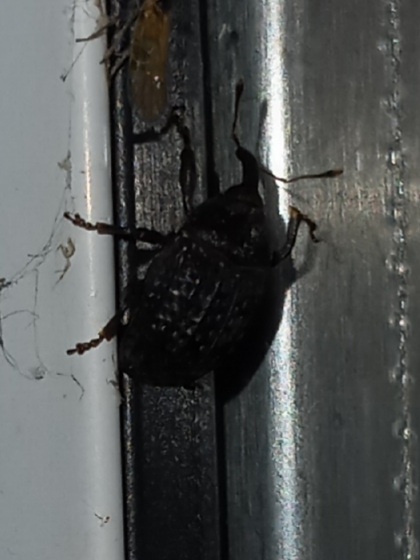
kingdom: Animalia
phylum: Arthropoda
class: Insecta
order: Coleoptera
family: Curculionidae
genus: Rhyssomatus
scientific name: Rhyssomatus lineaticollis
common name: Milkweed stem weevil
